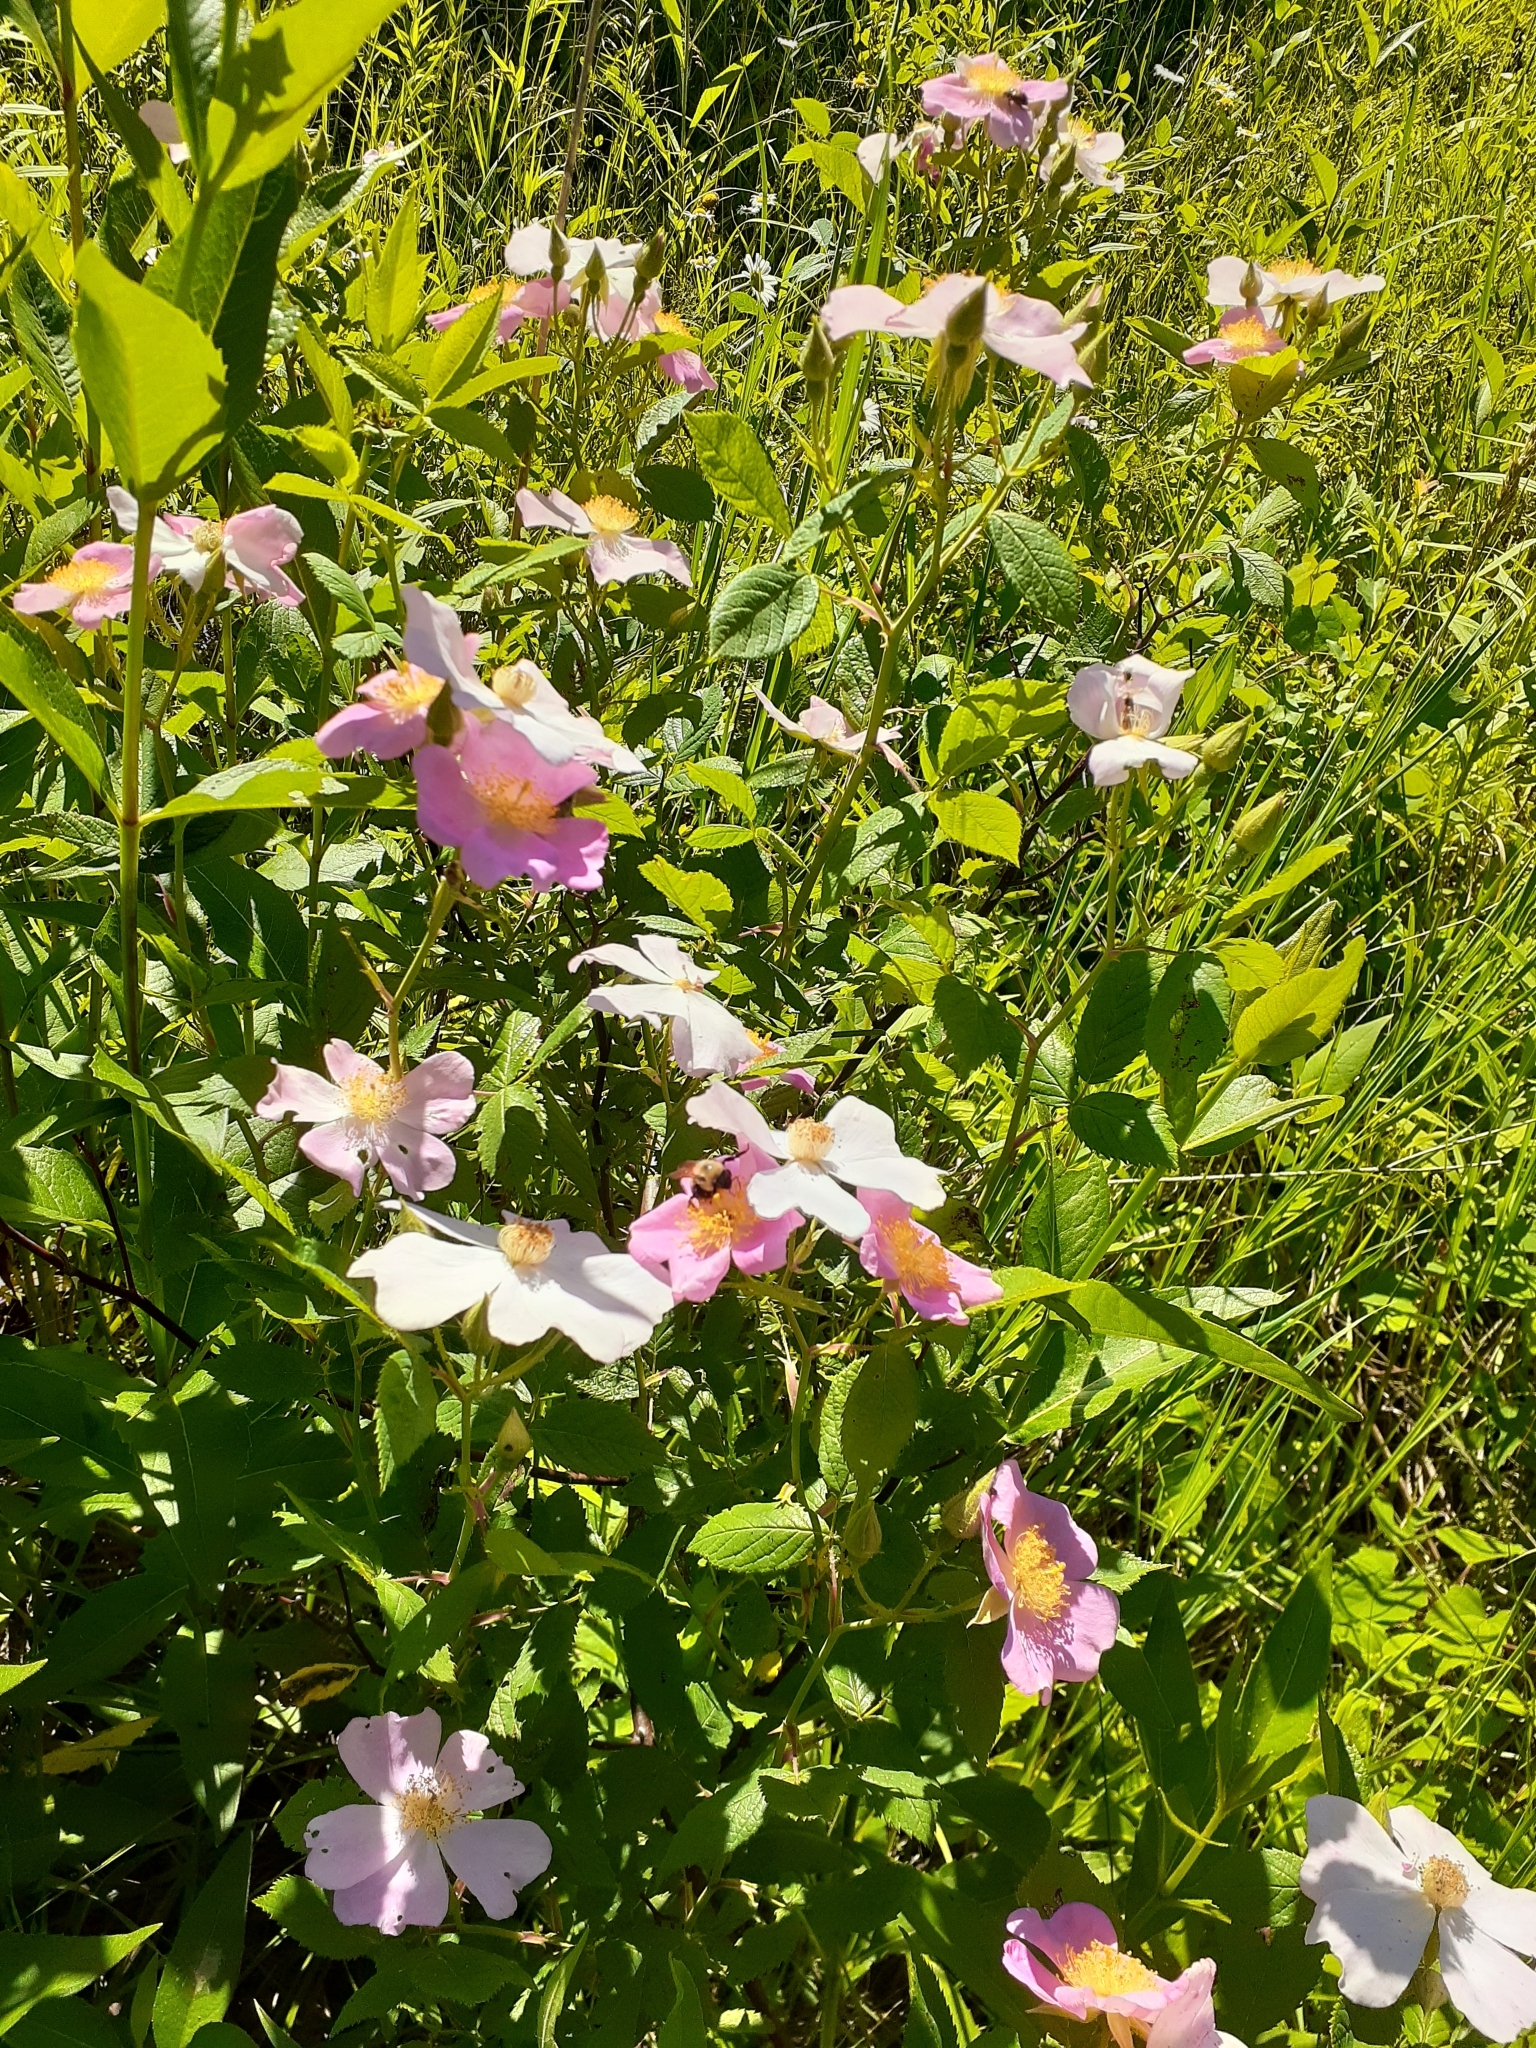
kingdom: Plantae
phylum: Tracheophyta
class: Magnoliopsida
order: Rosales
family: Rosaceae
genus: Rosa
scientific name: Rosa setigera
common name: Prairie rose
